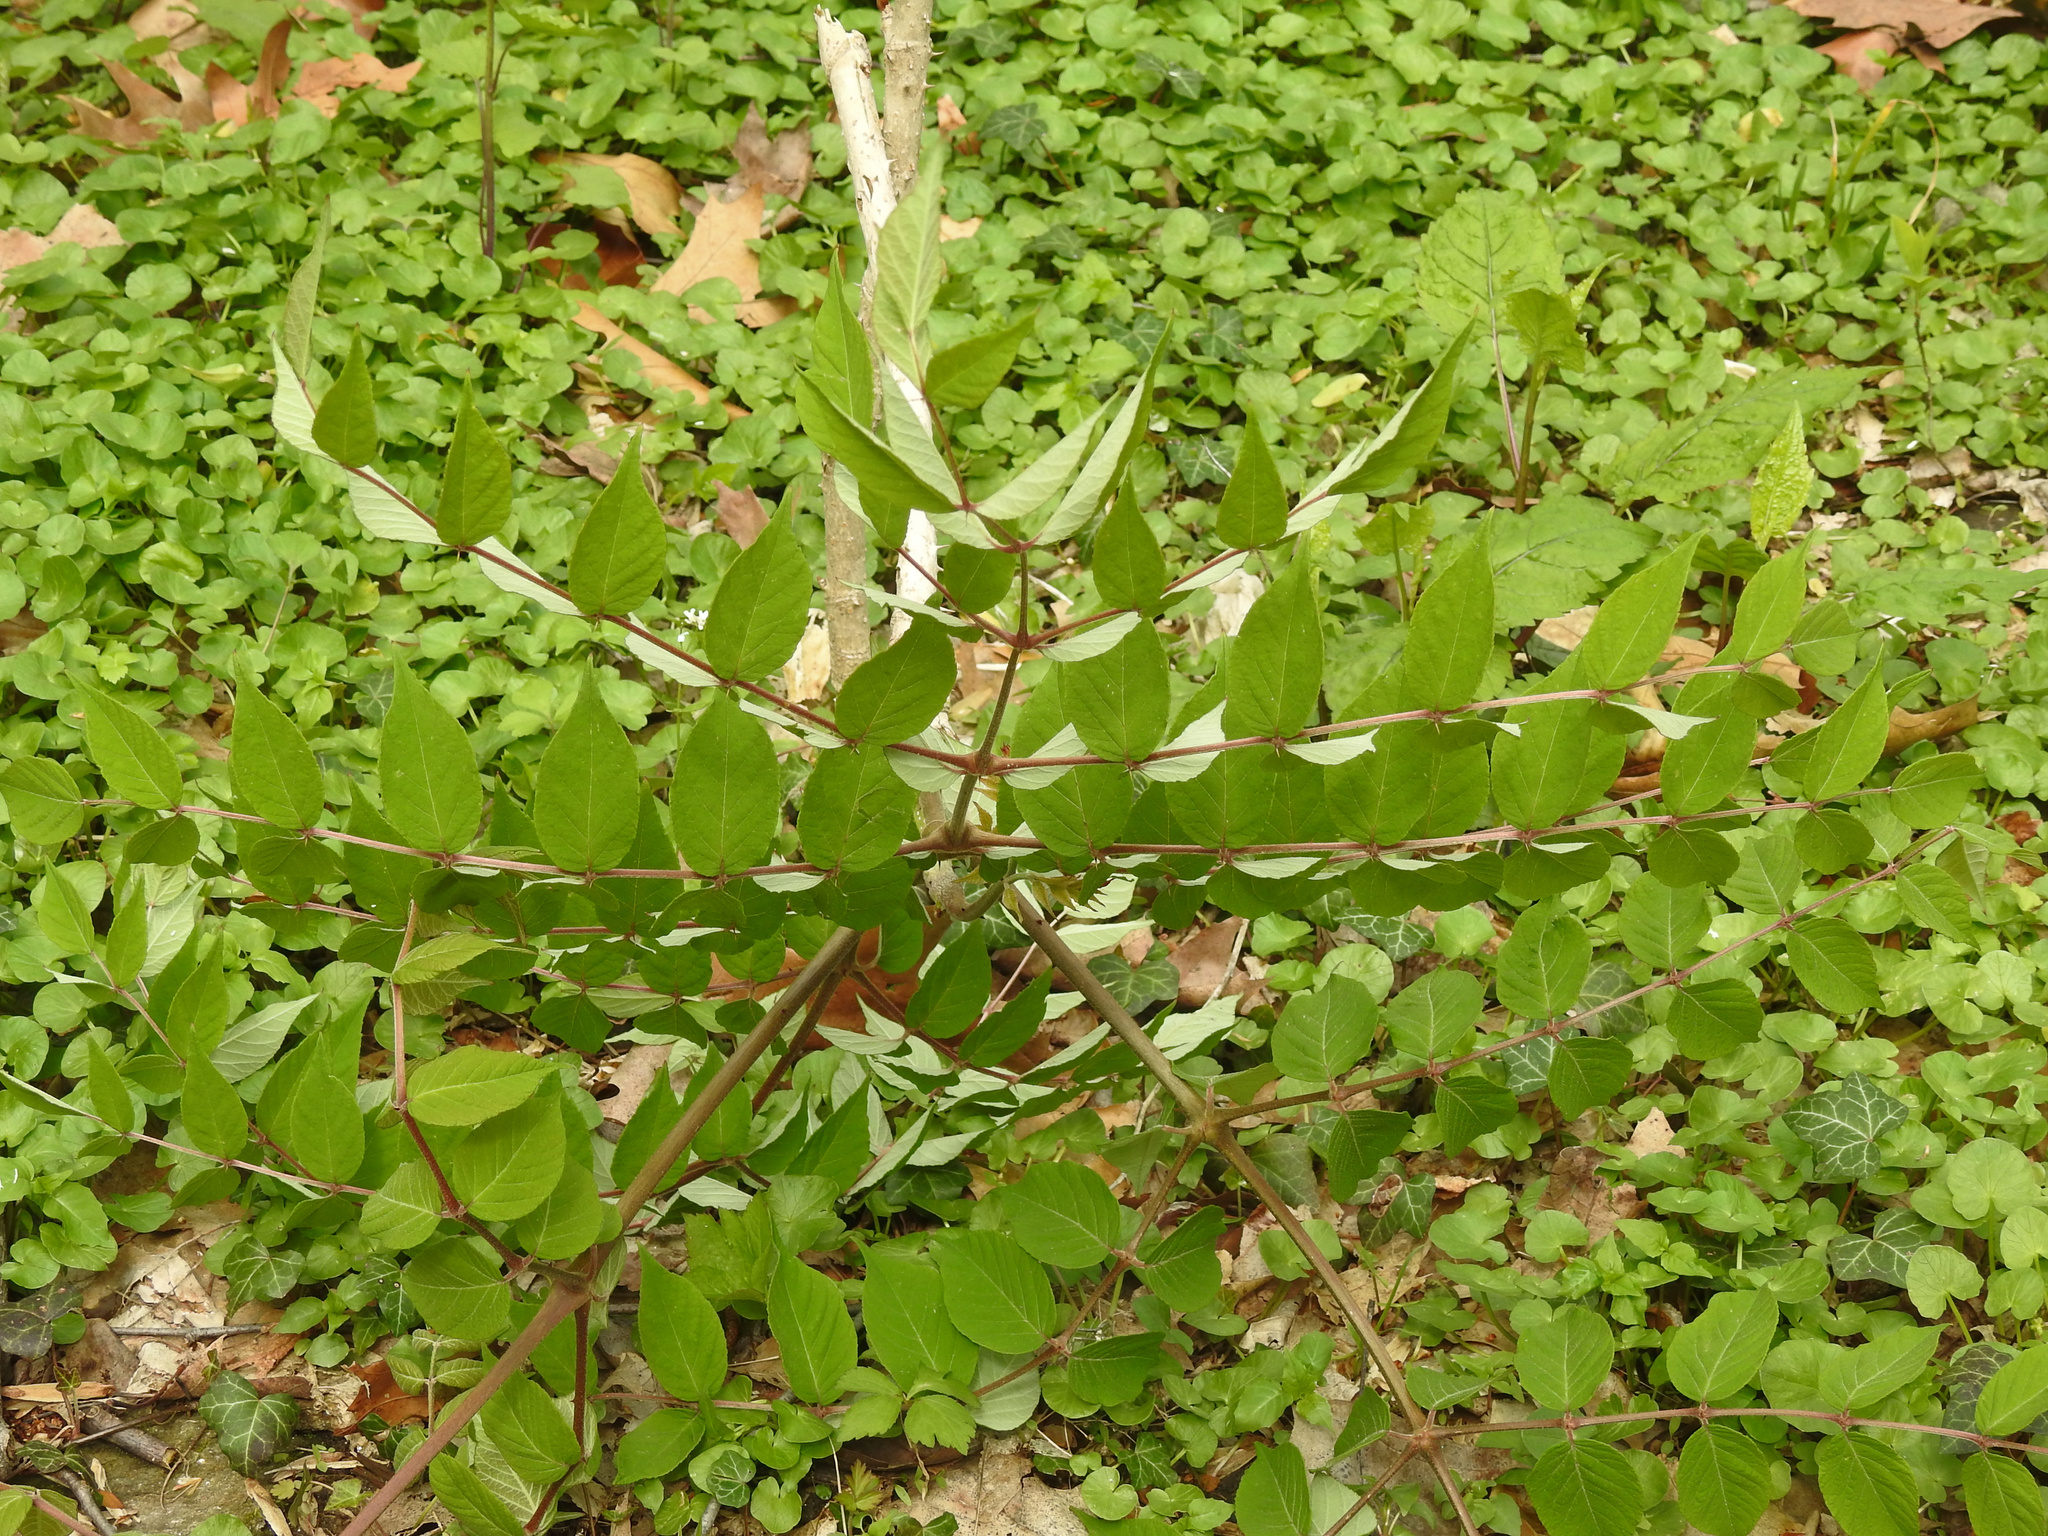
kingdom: Plantae
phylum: Tracheophyta
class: Magnoliopsida
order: Apiales
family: Araliaceae
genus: Aralia
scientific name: Aralia elata
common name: Japanese angelica-tree
